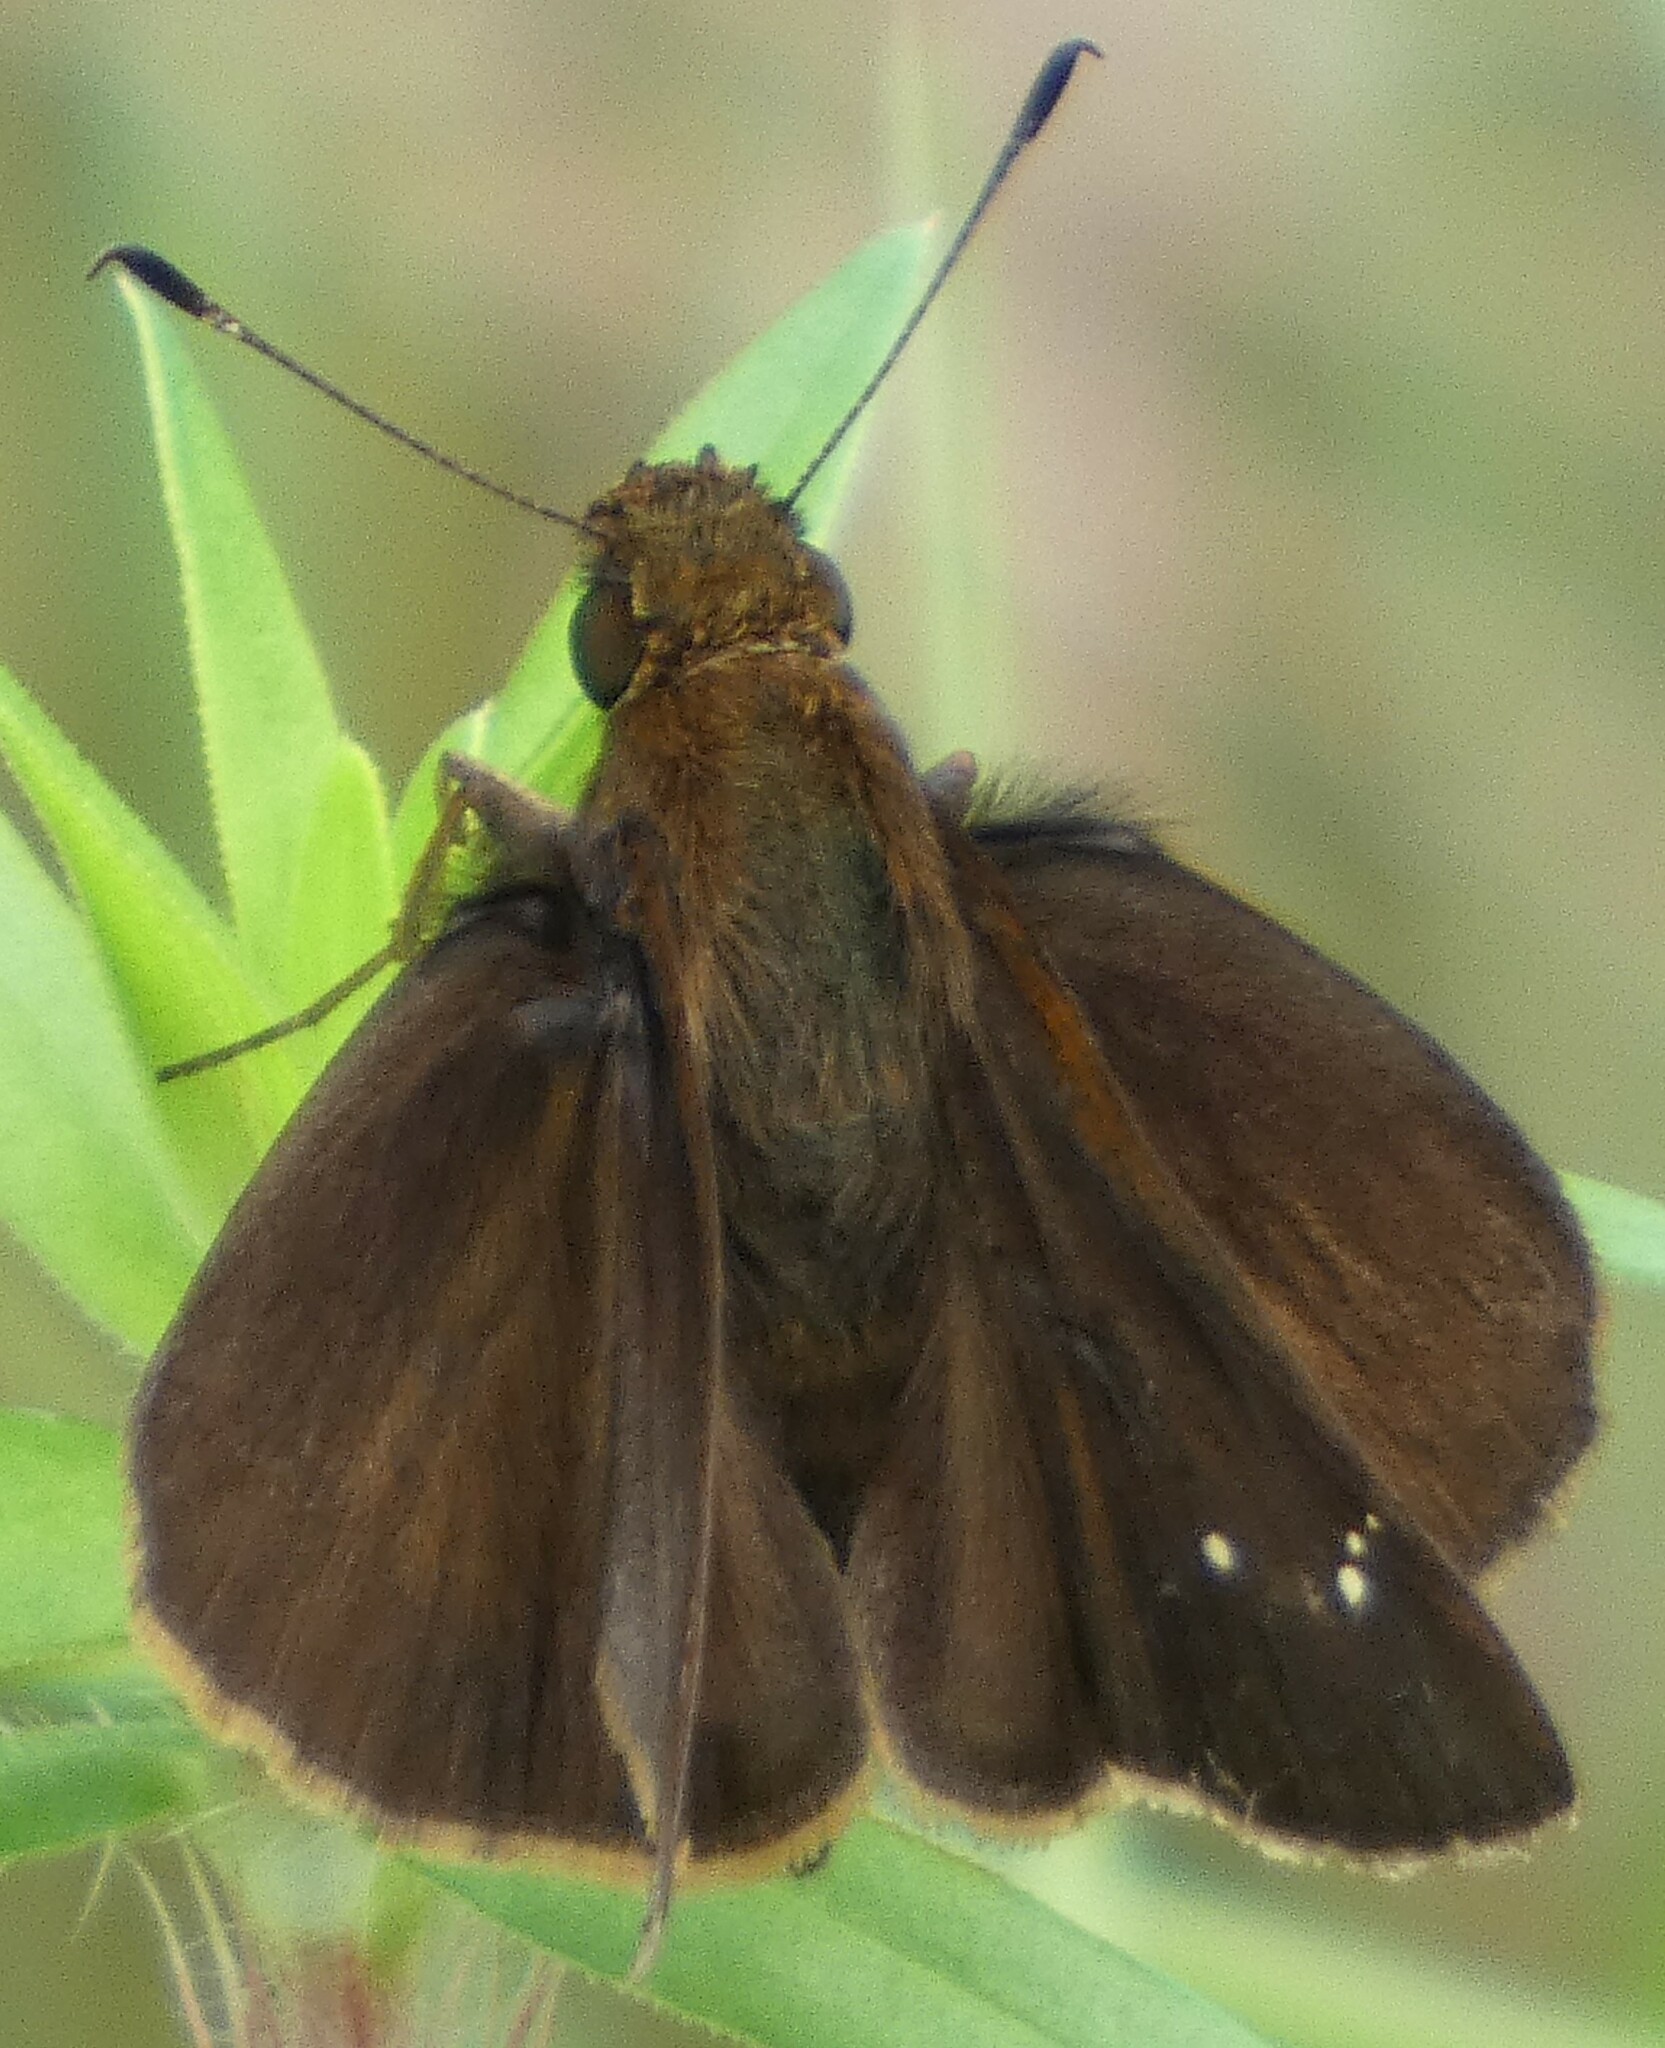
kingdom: Animalia
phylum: Arthropoda
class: Insecta
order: Lepidoptera
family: Hesperiidae
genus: Lerema
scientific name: Lerema accius
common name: Clouded skipper
